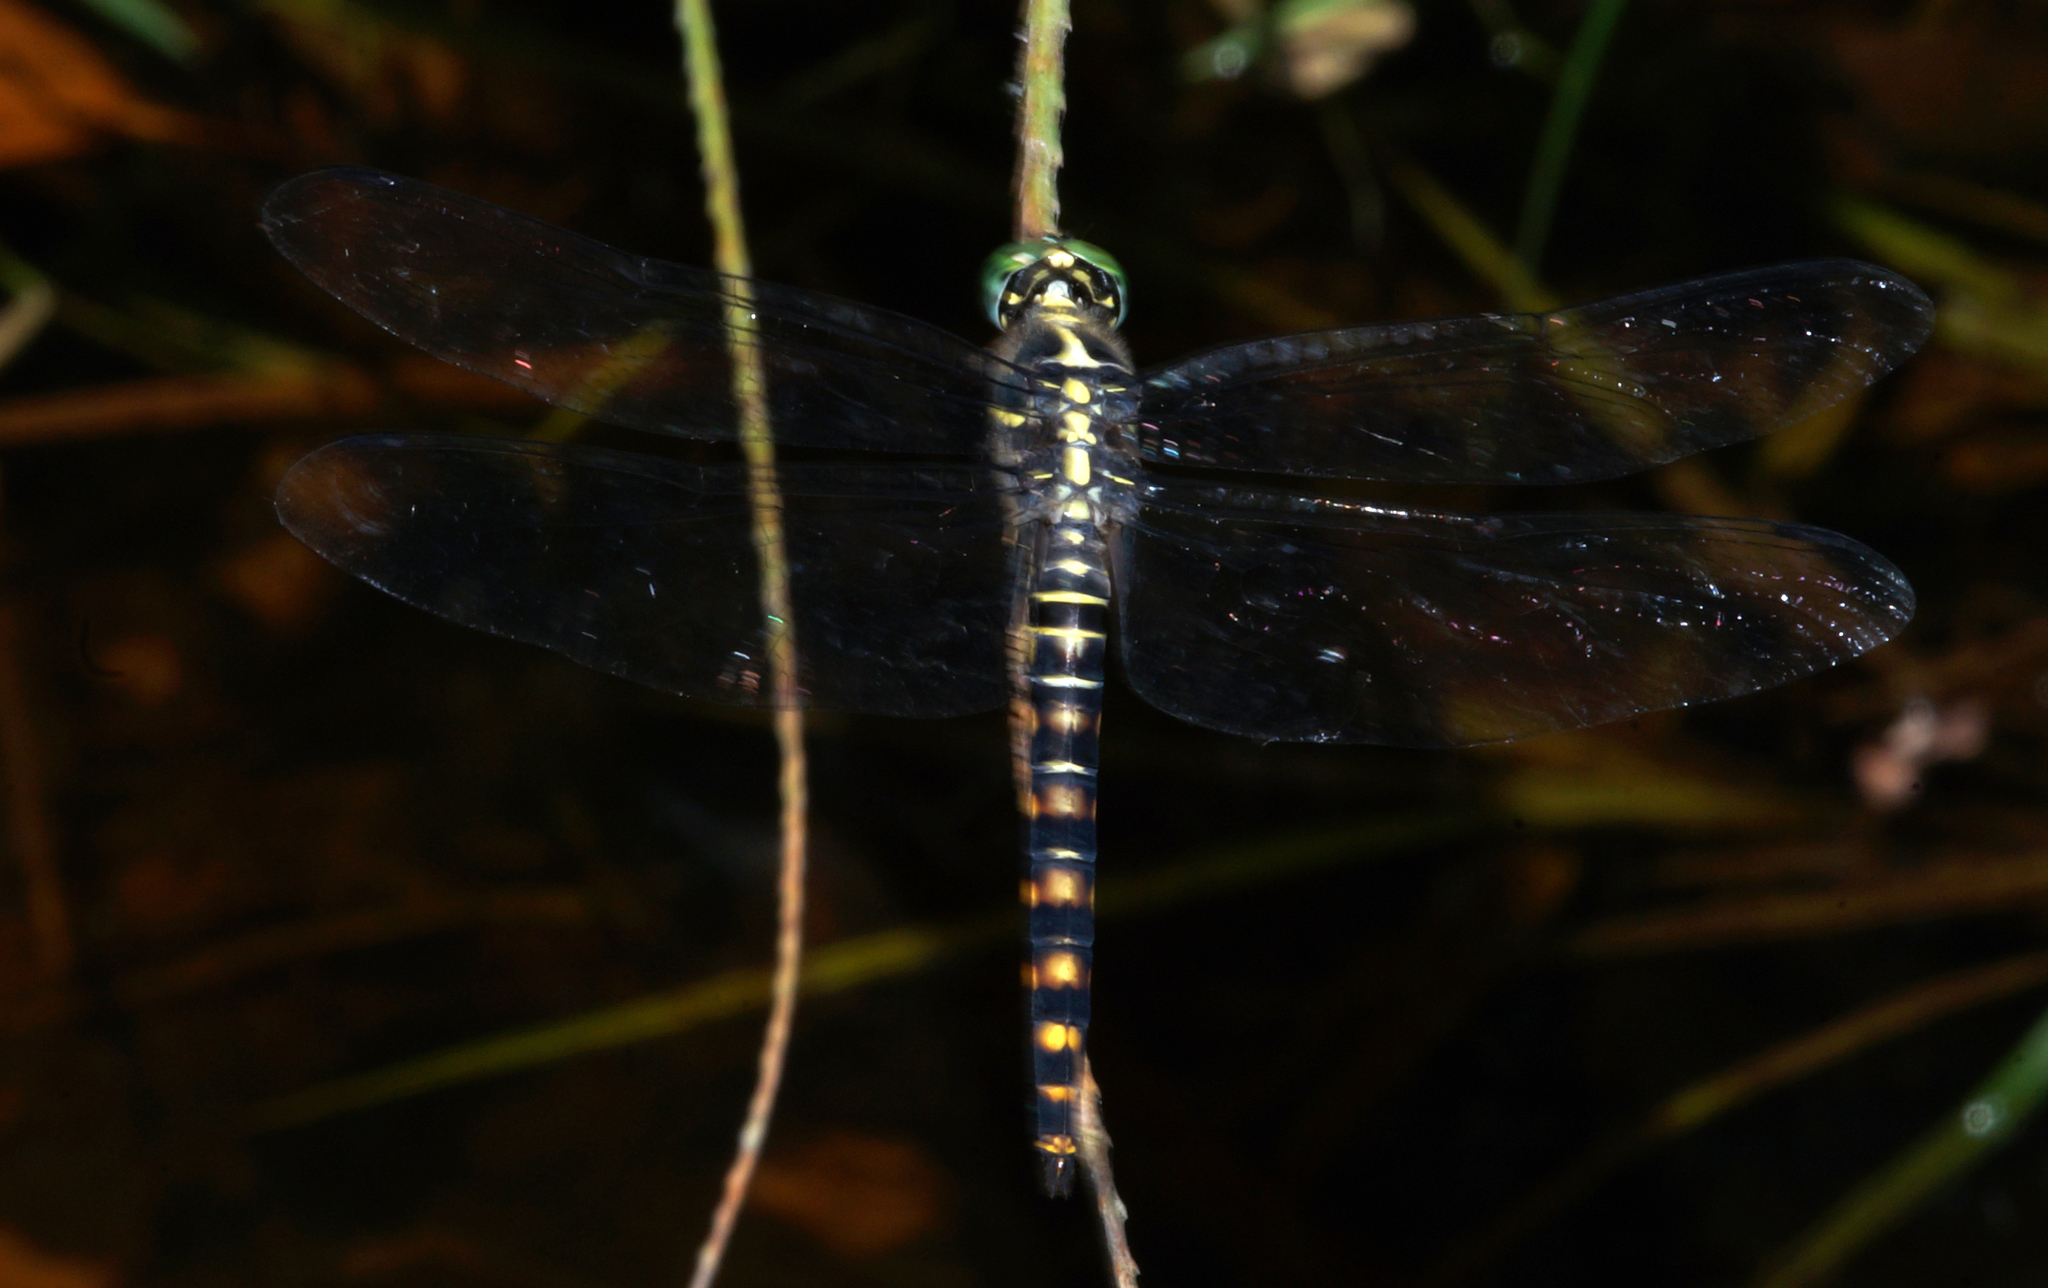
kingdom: Animalia
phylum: Arthropoda
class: Insecta
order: Odonata
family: Libellulidae
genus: Onychothemis
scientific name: Onychothemis testacea
